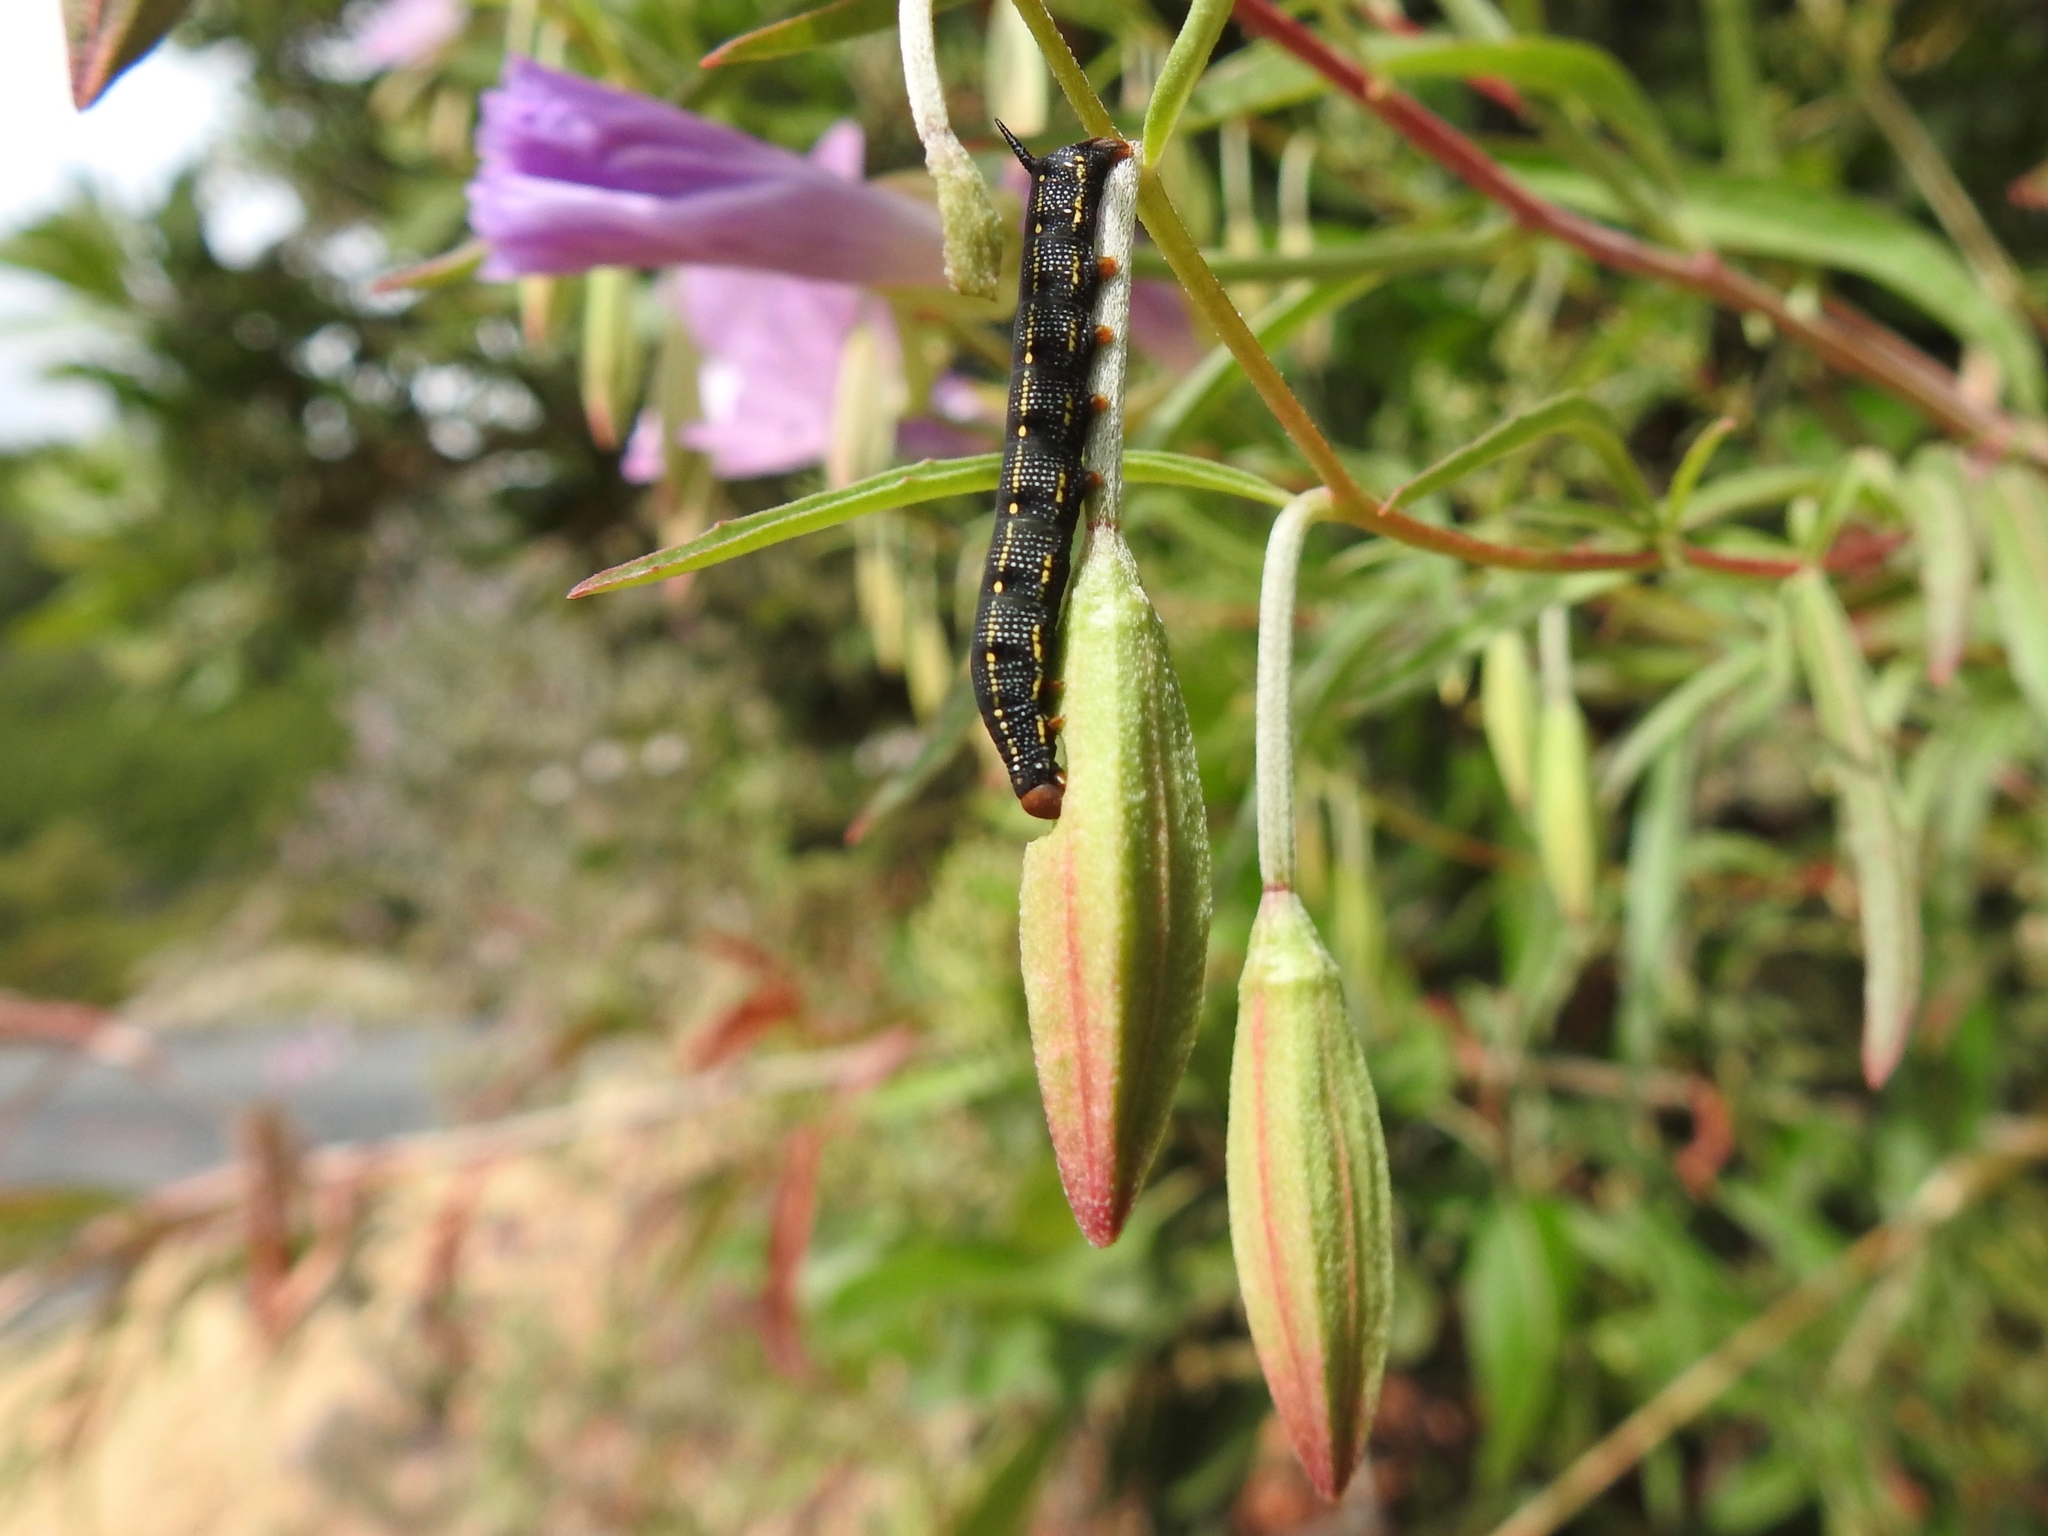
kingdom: Animalia
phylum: Arthropoda
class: Insecta
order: Lepidoptera
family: Sphingidae
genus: Hyles
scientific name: Hyles lineata
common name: White-lined sphinx
